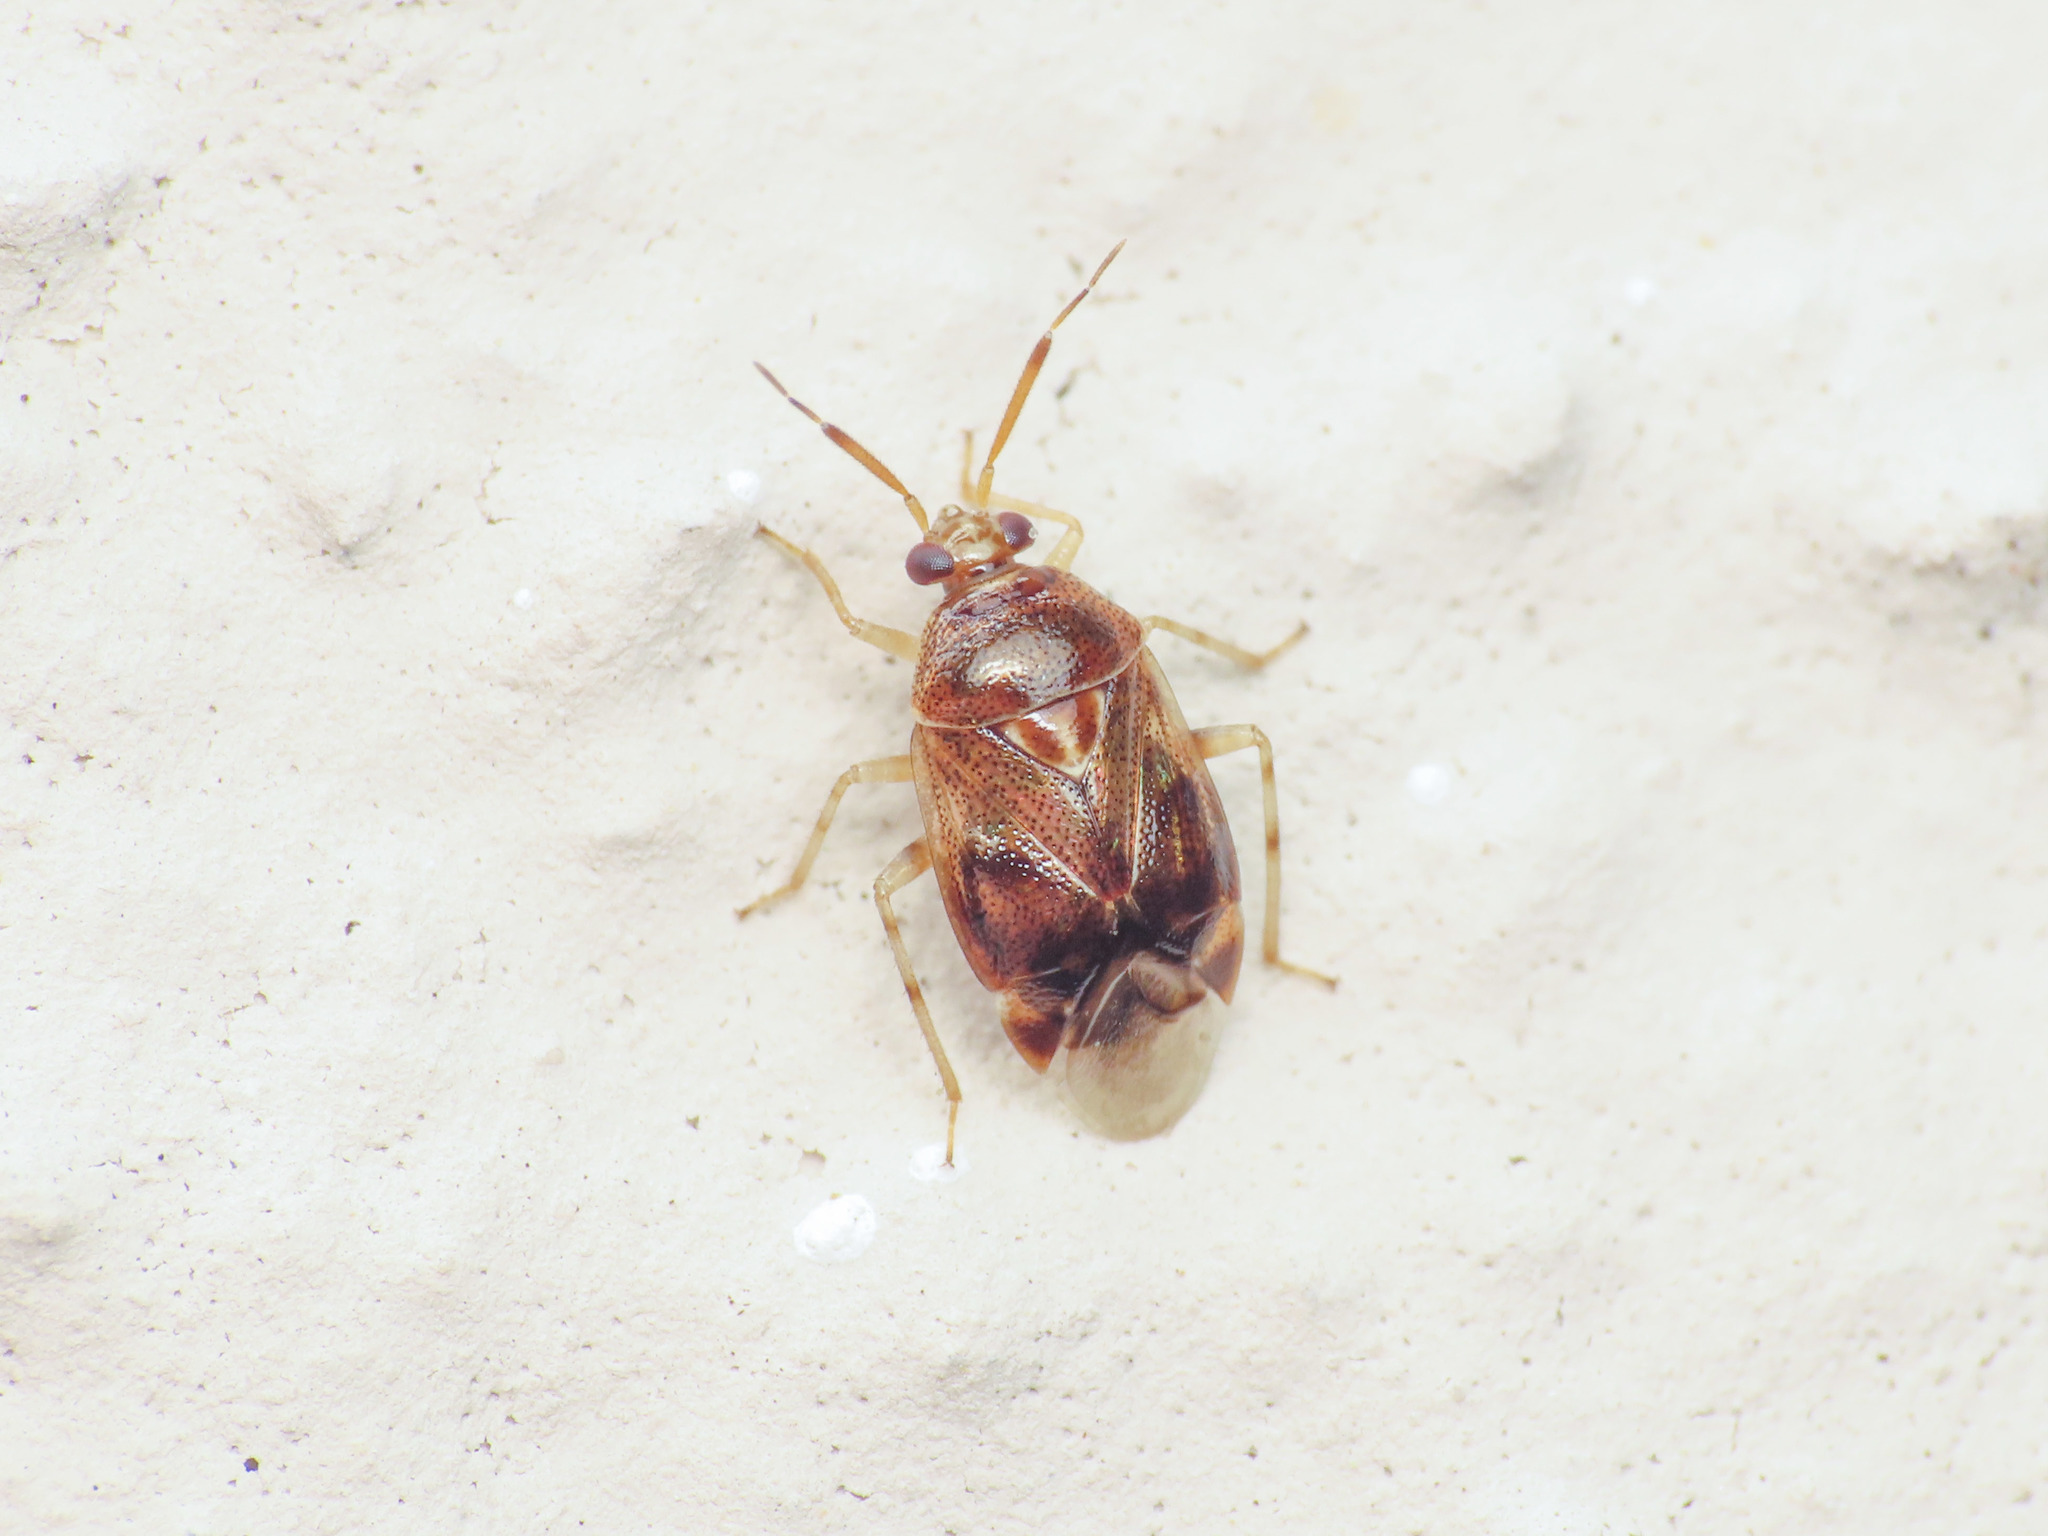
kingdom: Animalia
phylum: Arthropoda
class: Insecta
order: Hemiptera
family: Miridae
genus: Deraeocoris
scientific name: Deraeocoris lutescens
